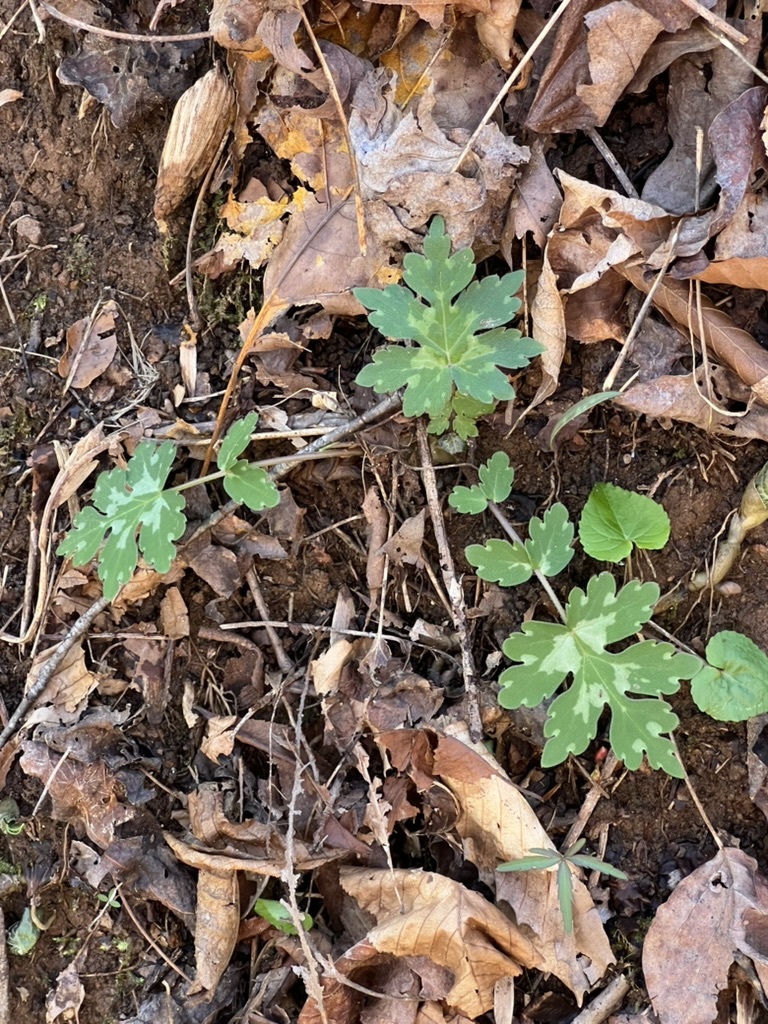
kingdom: Plantae
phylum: Tracheophyta
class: Magnoliopsida
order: Boraginales
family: Hydrophyllaceae
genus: Hydrophyllum
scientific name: Hydrophyllum canadense
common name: Canada waterleaf
